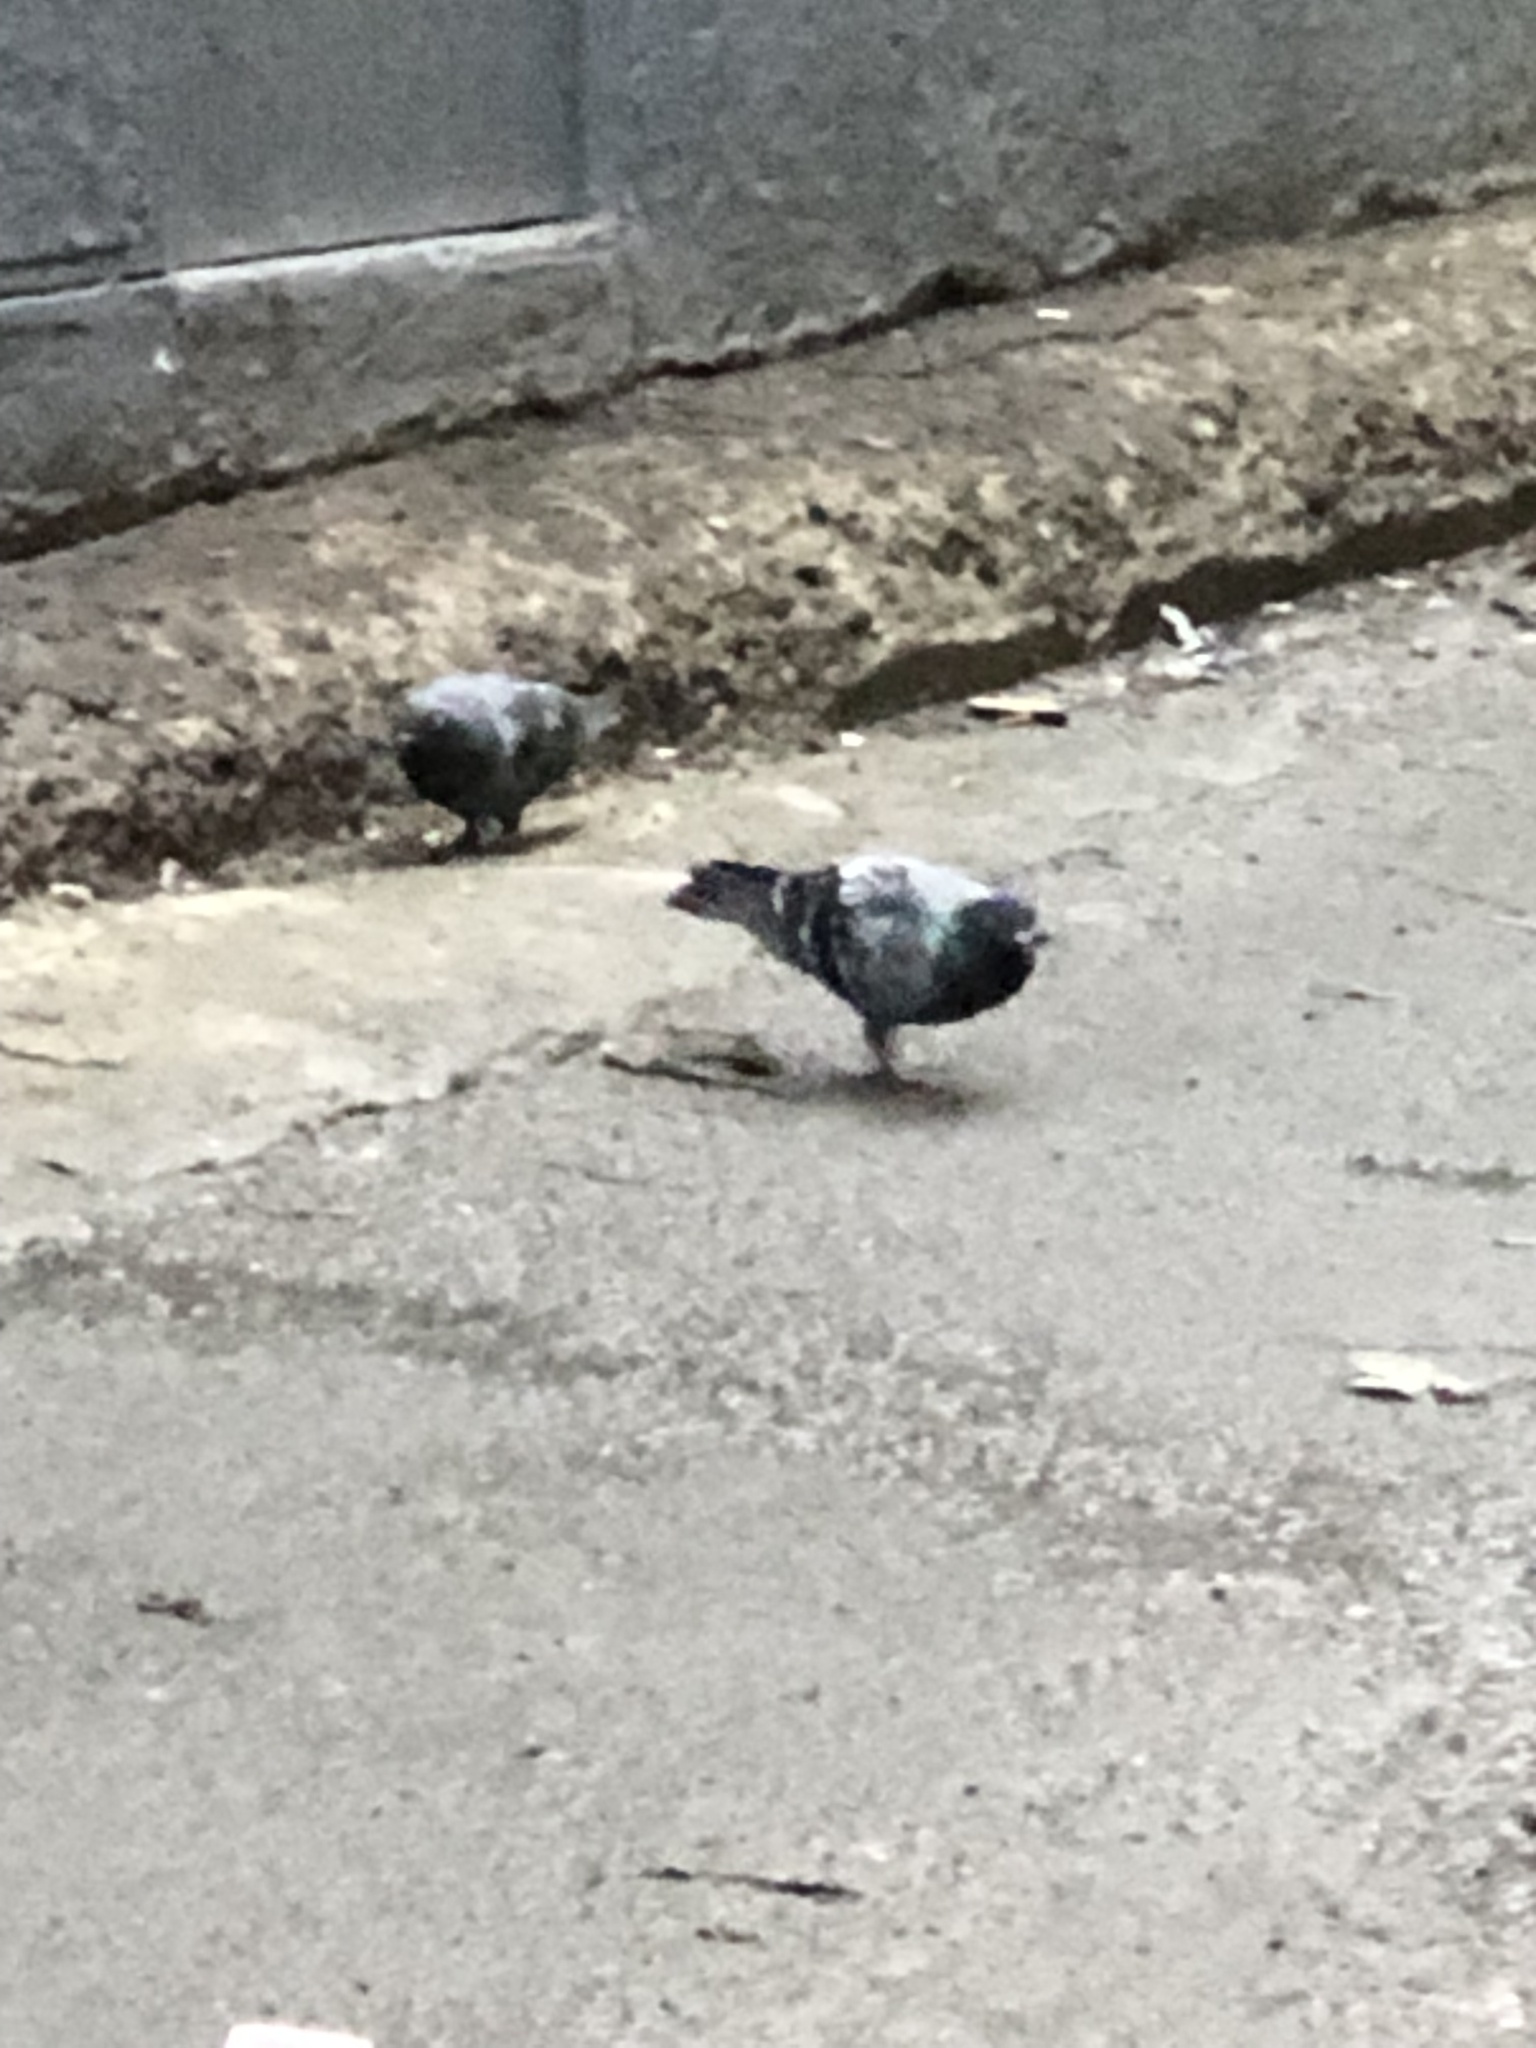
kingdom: Animalia
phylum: Chordata
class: Aves
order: Columbiformes
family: Columbidae
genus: Columba
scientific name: Columba livia
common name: Rock pigeon
